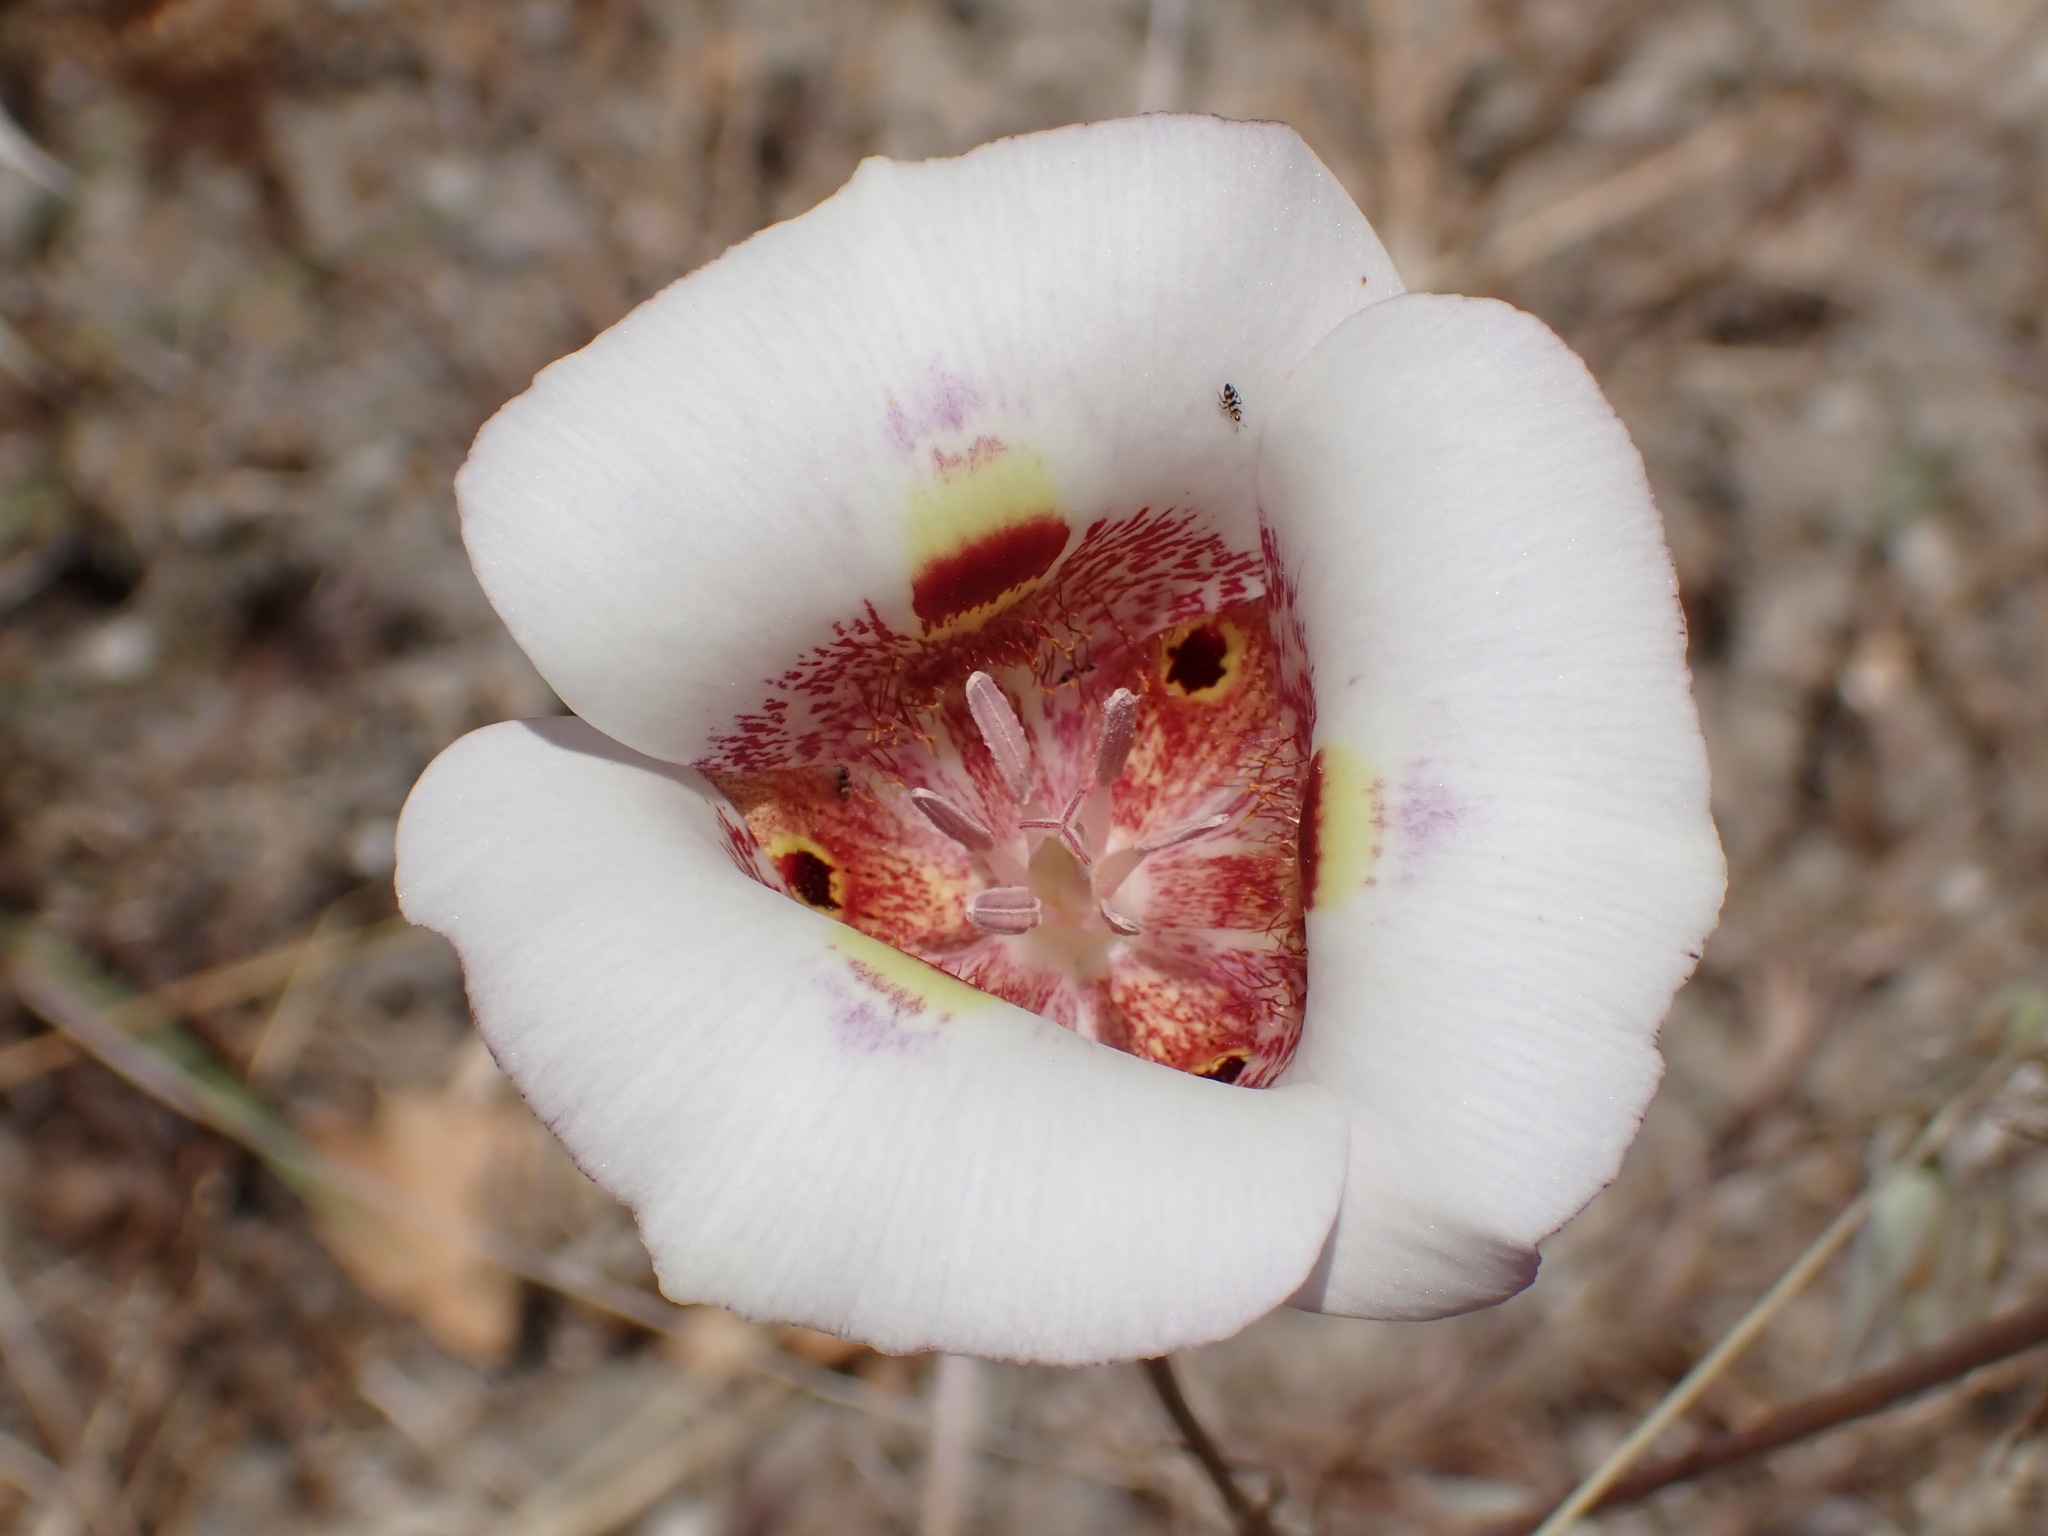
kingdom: Plantae
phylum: Tracheophyta
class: Liliopsida
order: Liliales
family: Liliaceae
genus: Calochortus
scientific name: Calochortus argillosus
